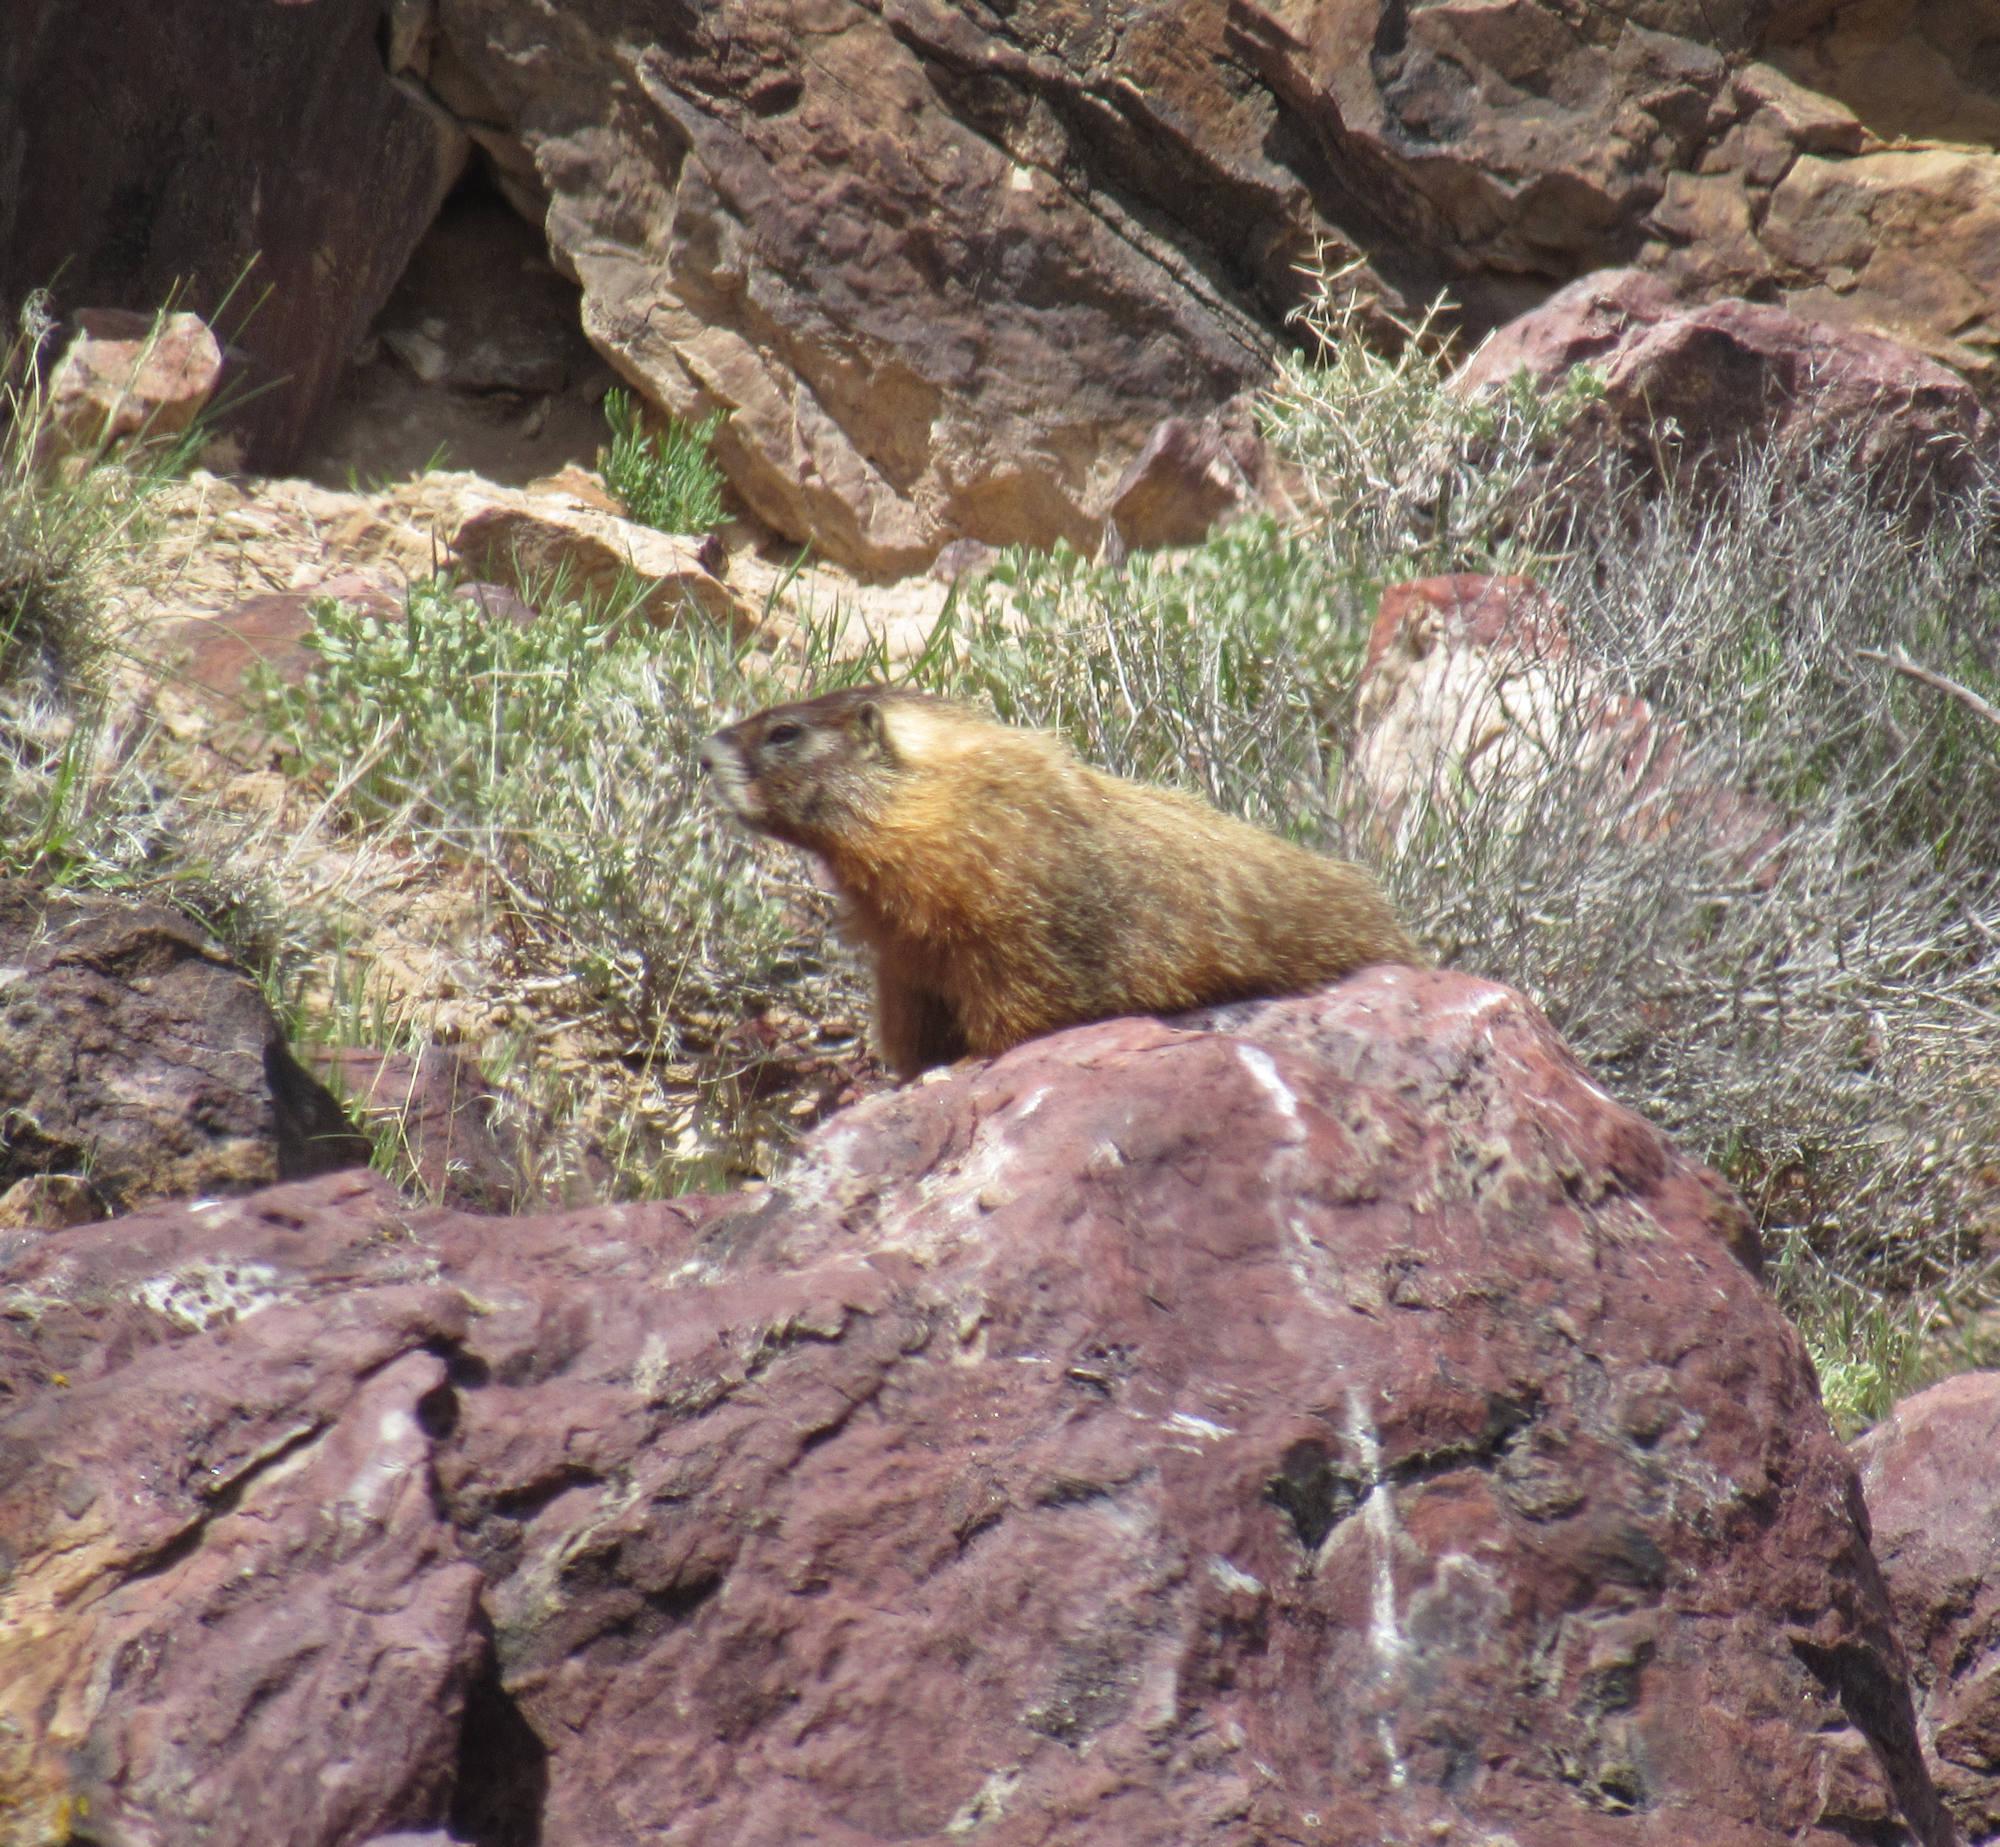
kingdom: Animalia
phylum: Chordata
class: Mammalia
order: Rodentia
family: Sciuridae
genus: Marmota
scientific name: Marmota flaviventris
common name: Yellow-bellied marmot
